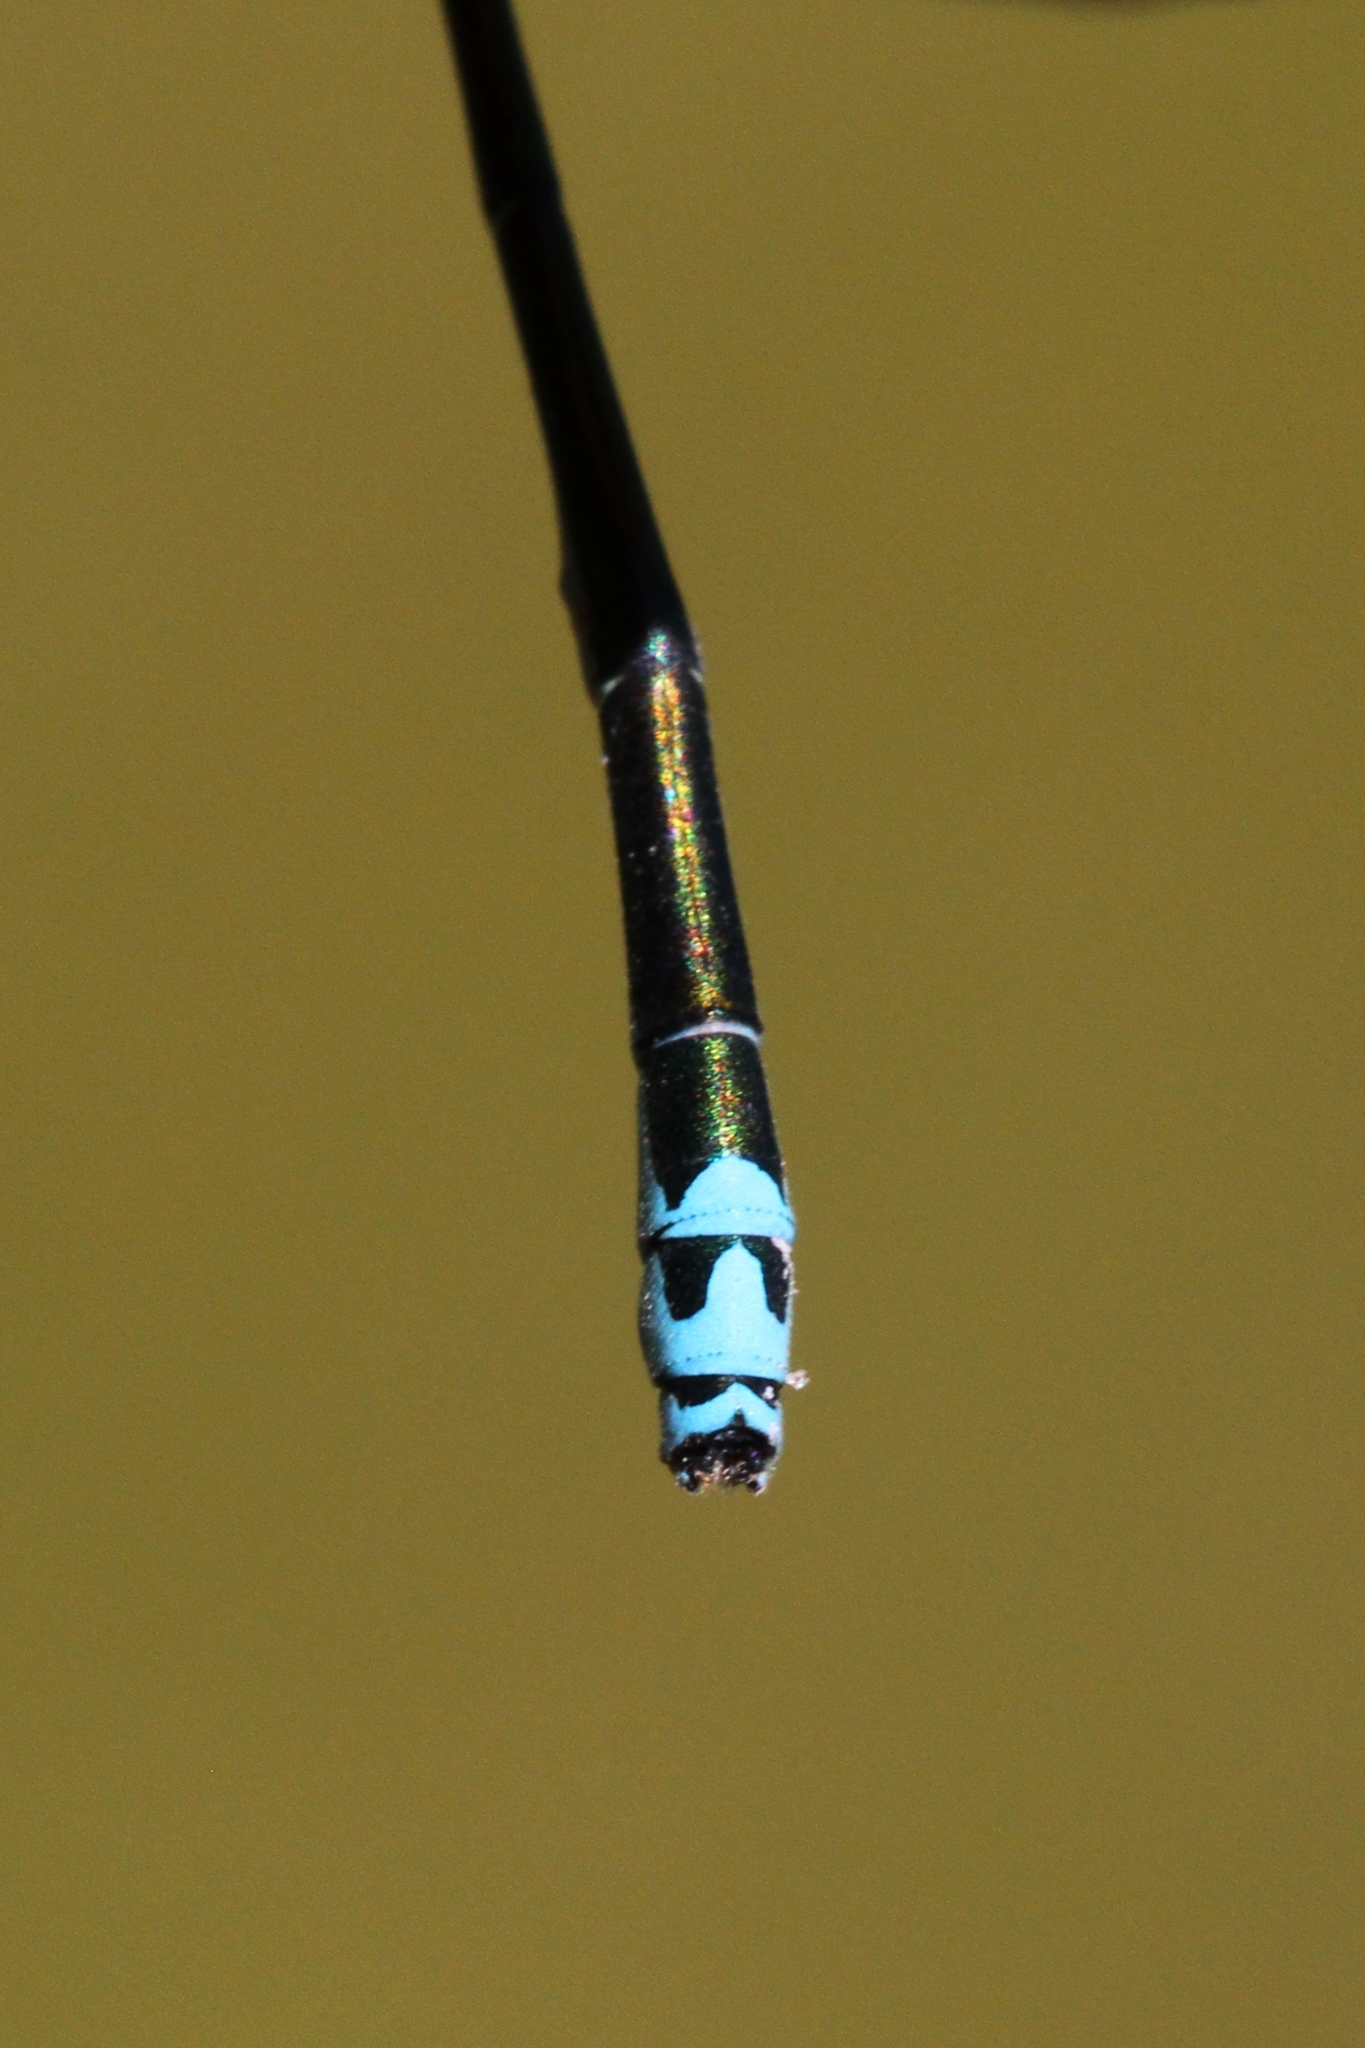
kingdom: Animalia
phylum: Arthropoda
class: Insecta
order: Odonata
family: Coenagrionidae
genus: Nehalennia
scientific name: Nehalennia irene
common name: Sedge sprite
